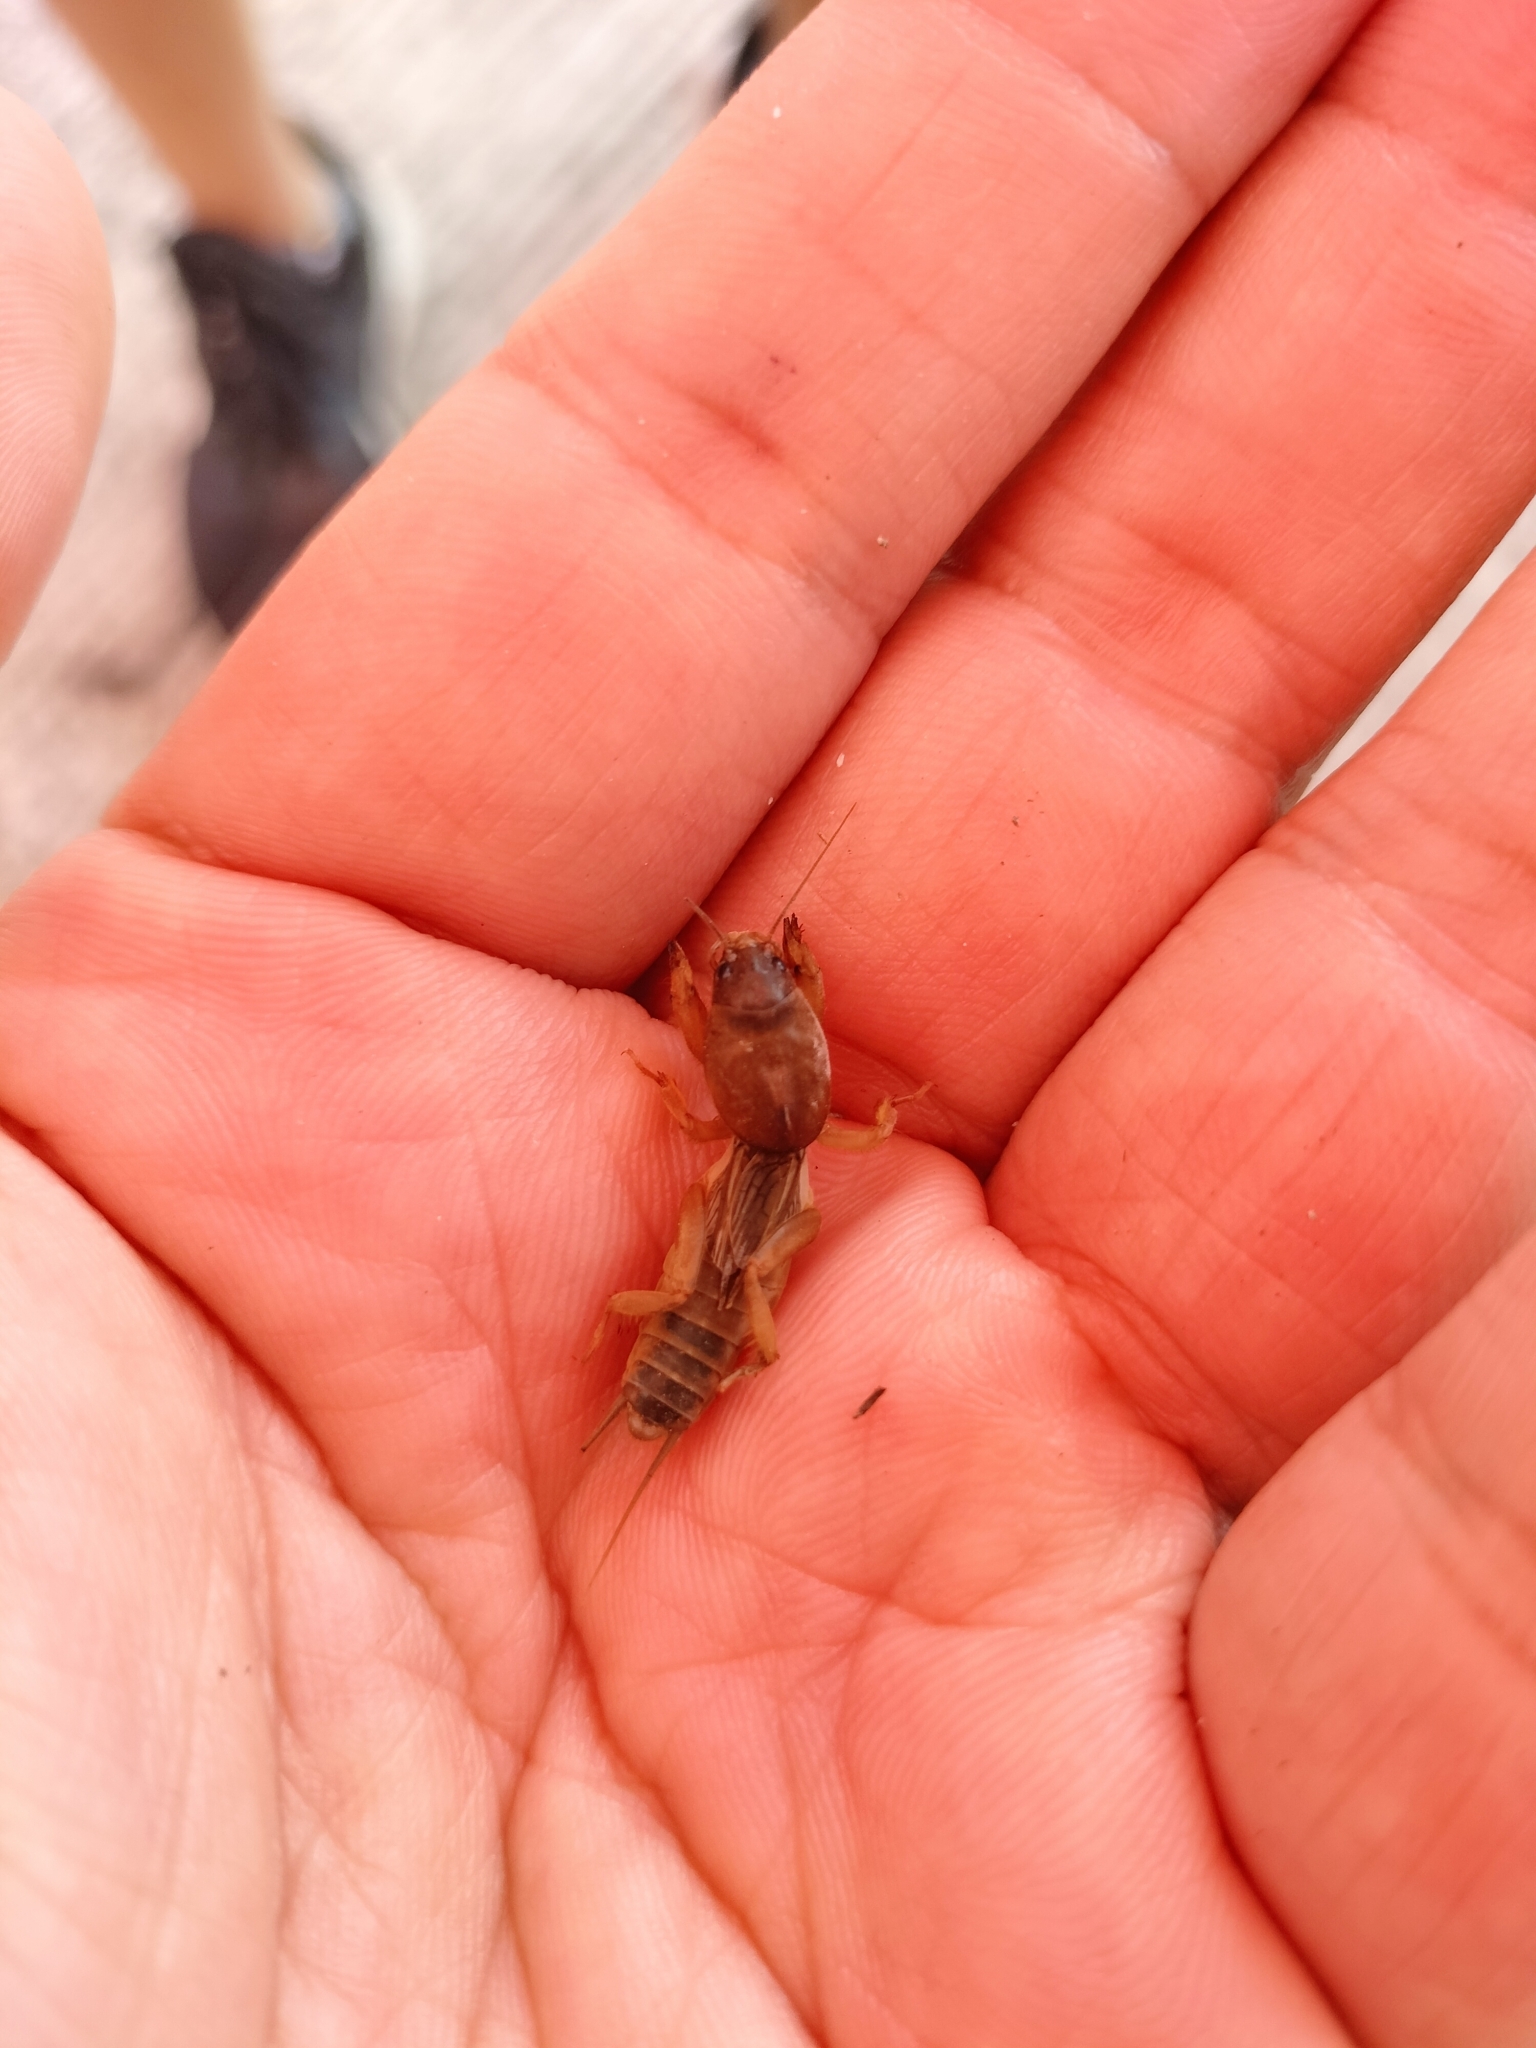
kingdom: Animalia
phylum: Arthropoda
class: Insecta
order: Orthoptera
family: Gryllotalpidae
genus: Gryllotalpa
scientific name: Gryllotalpa orientalis
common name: Grasshopper
